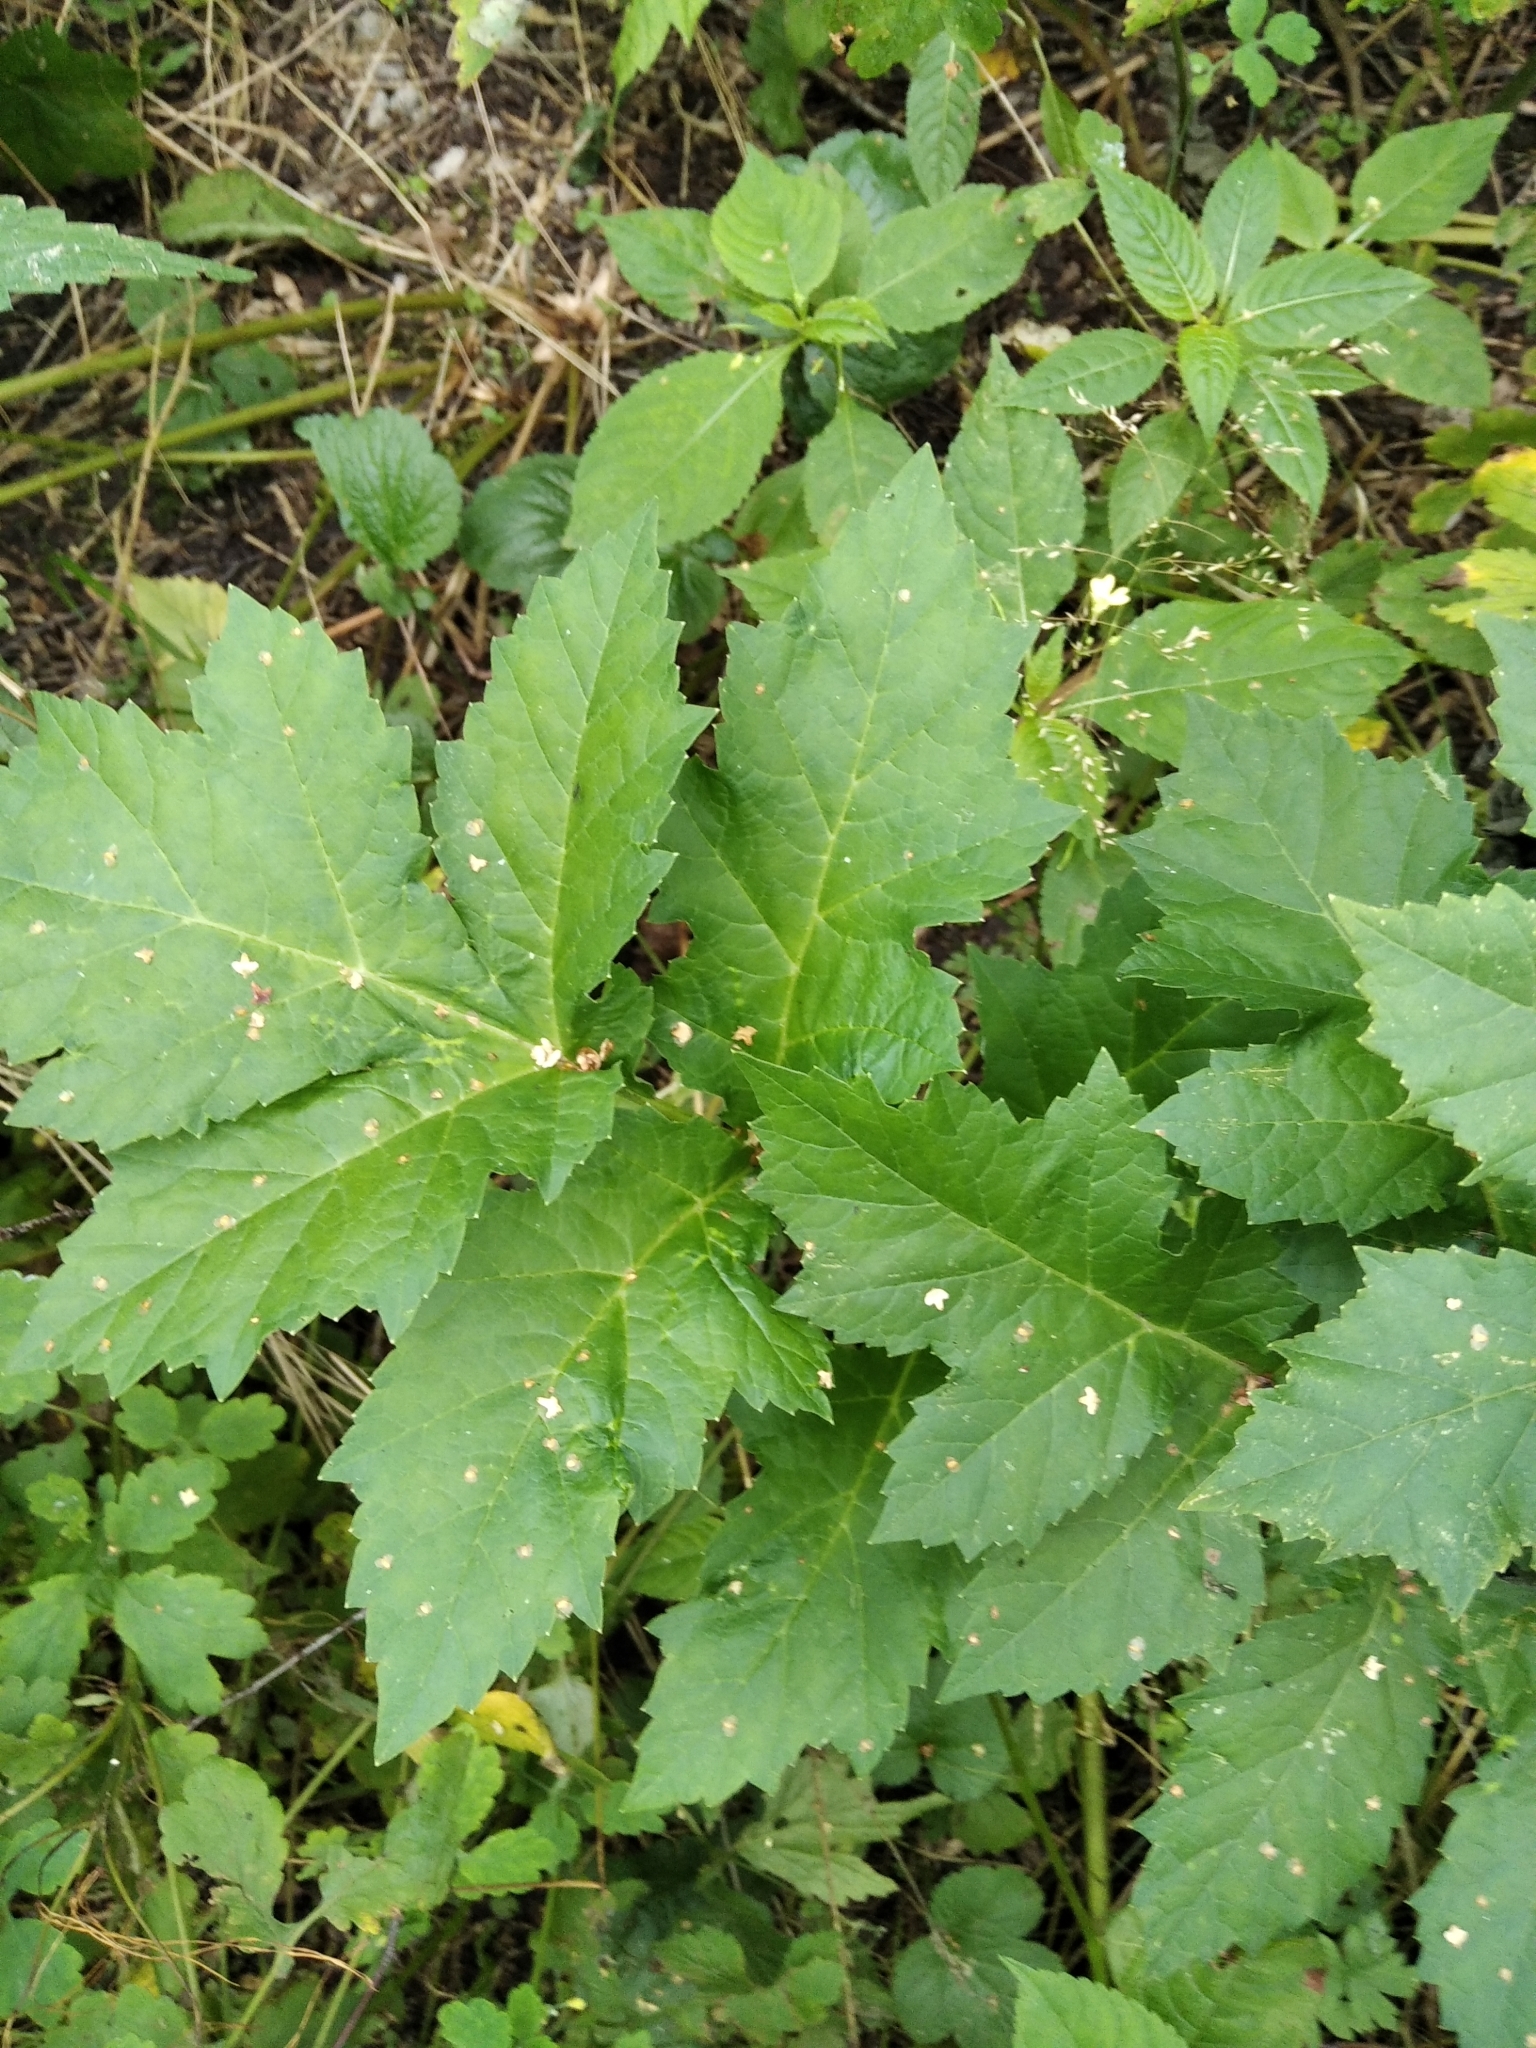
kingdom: Plantae
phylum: Tracheophyta
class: Magnoliopsida
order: Apiales
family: Apiaceae
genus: Heracleum
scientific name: Heracleum sosnowskyi
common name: Sosnowsky's hogweed
